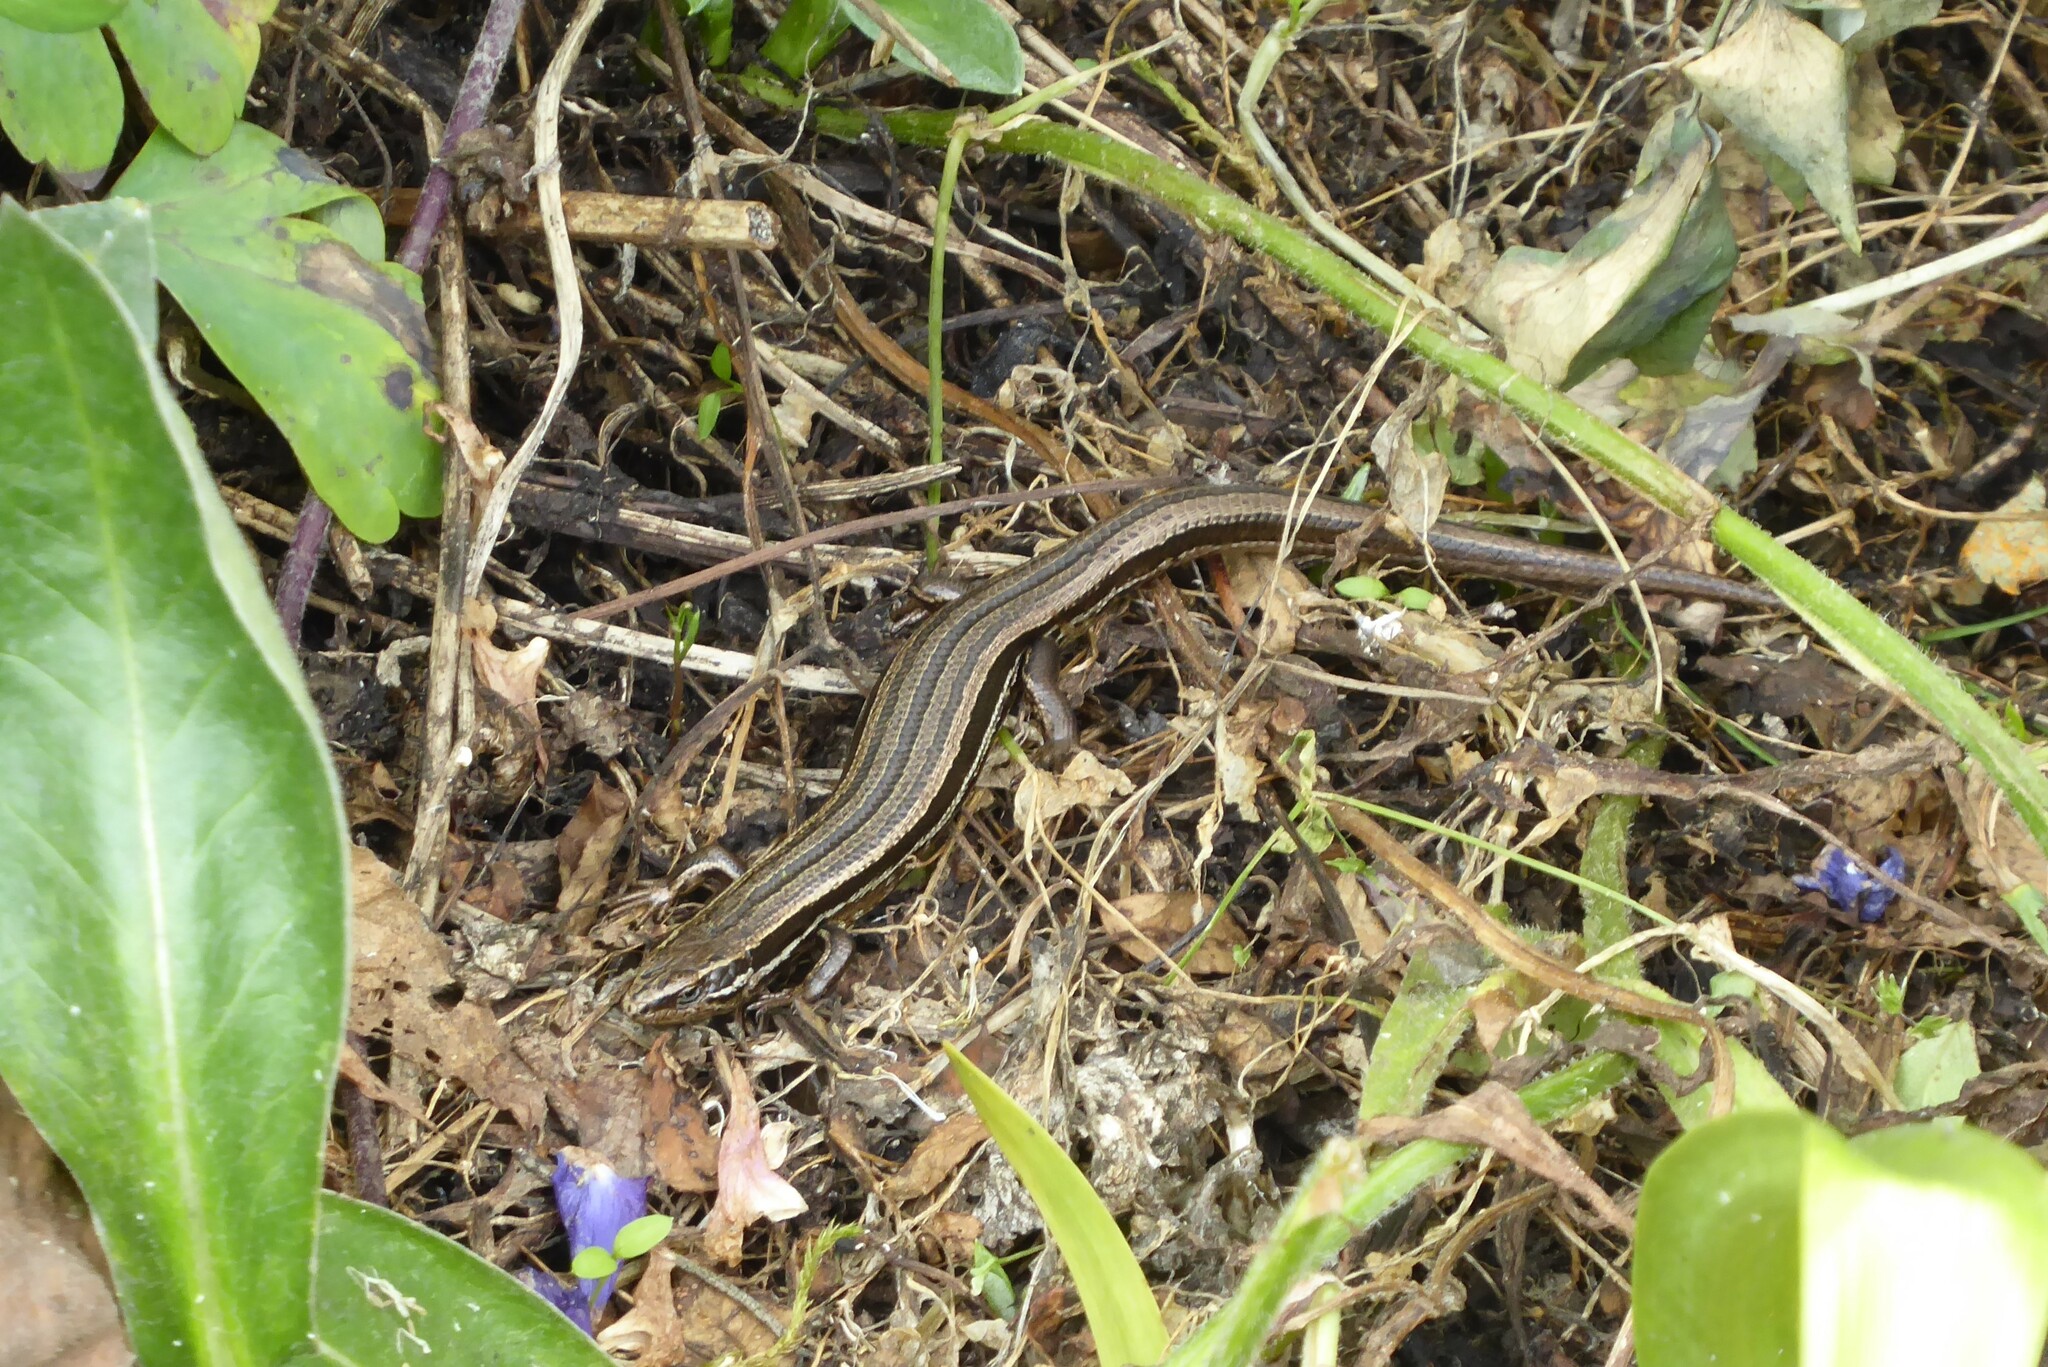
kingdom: Animalia
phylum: Chordata
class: Squamata
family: Scincidae
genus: Oligosoma
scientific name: Oligosoma polychroma
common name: Common new zealand skink
